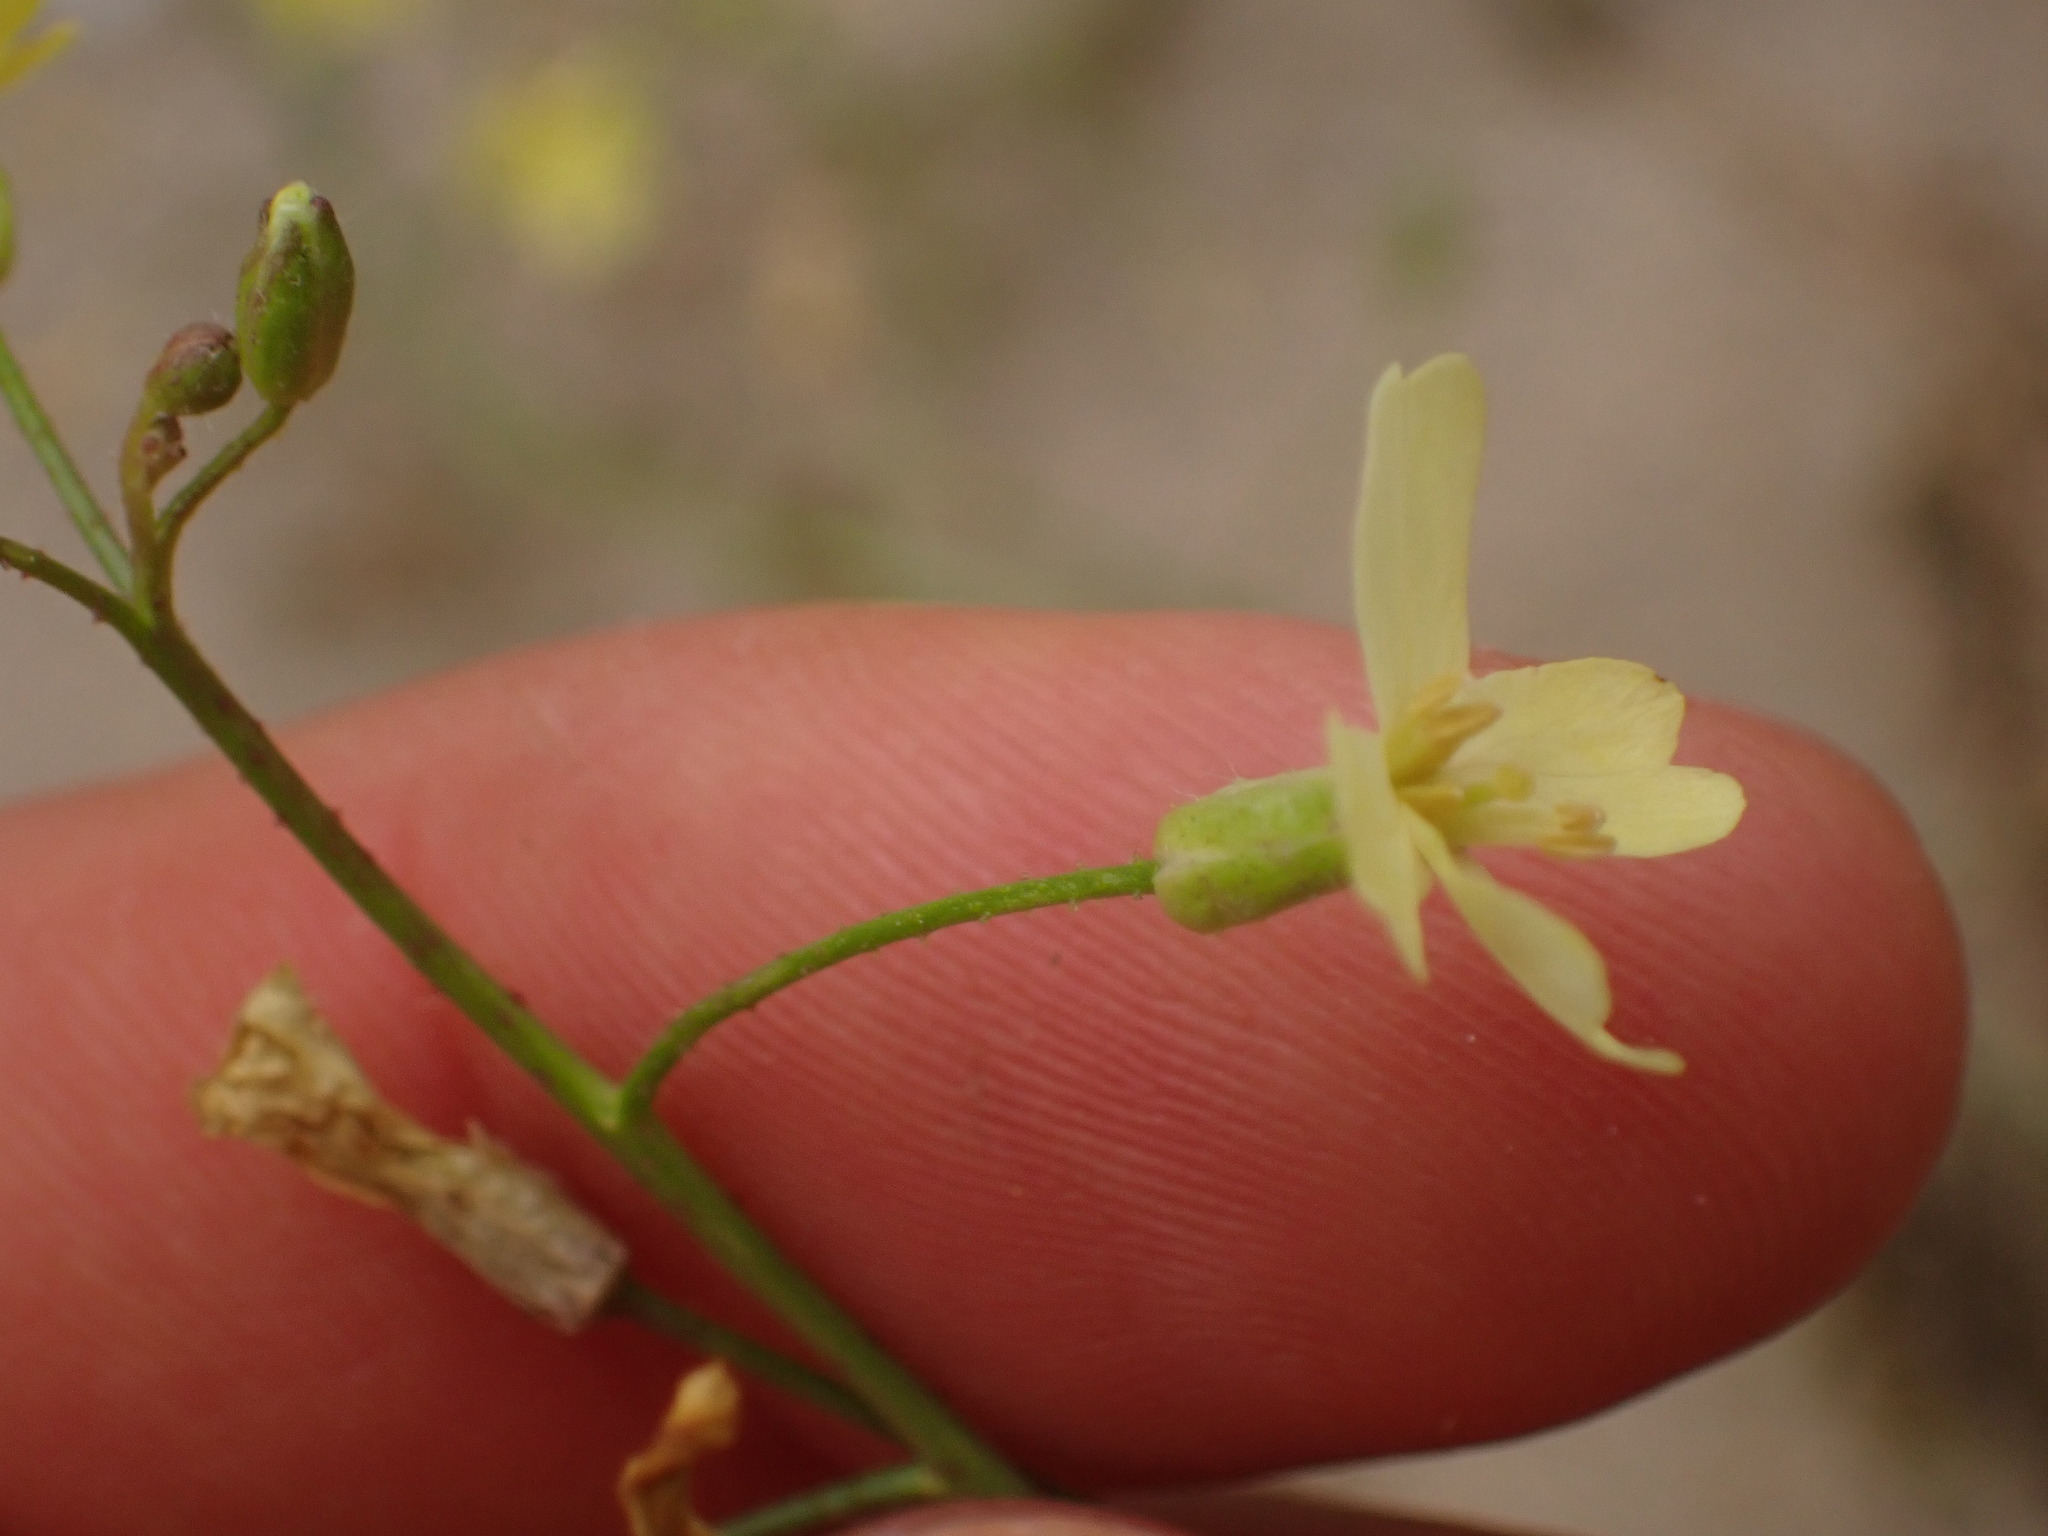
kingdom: Plantae
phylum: Tracheophyta
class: Magnoliopsida
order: Brassicales
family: Brassicaceae
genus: Bunias
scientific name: Bunias erucago
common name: Southern warty-cabbage
